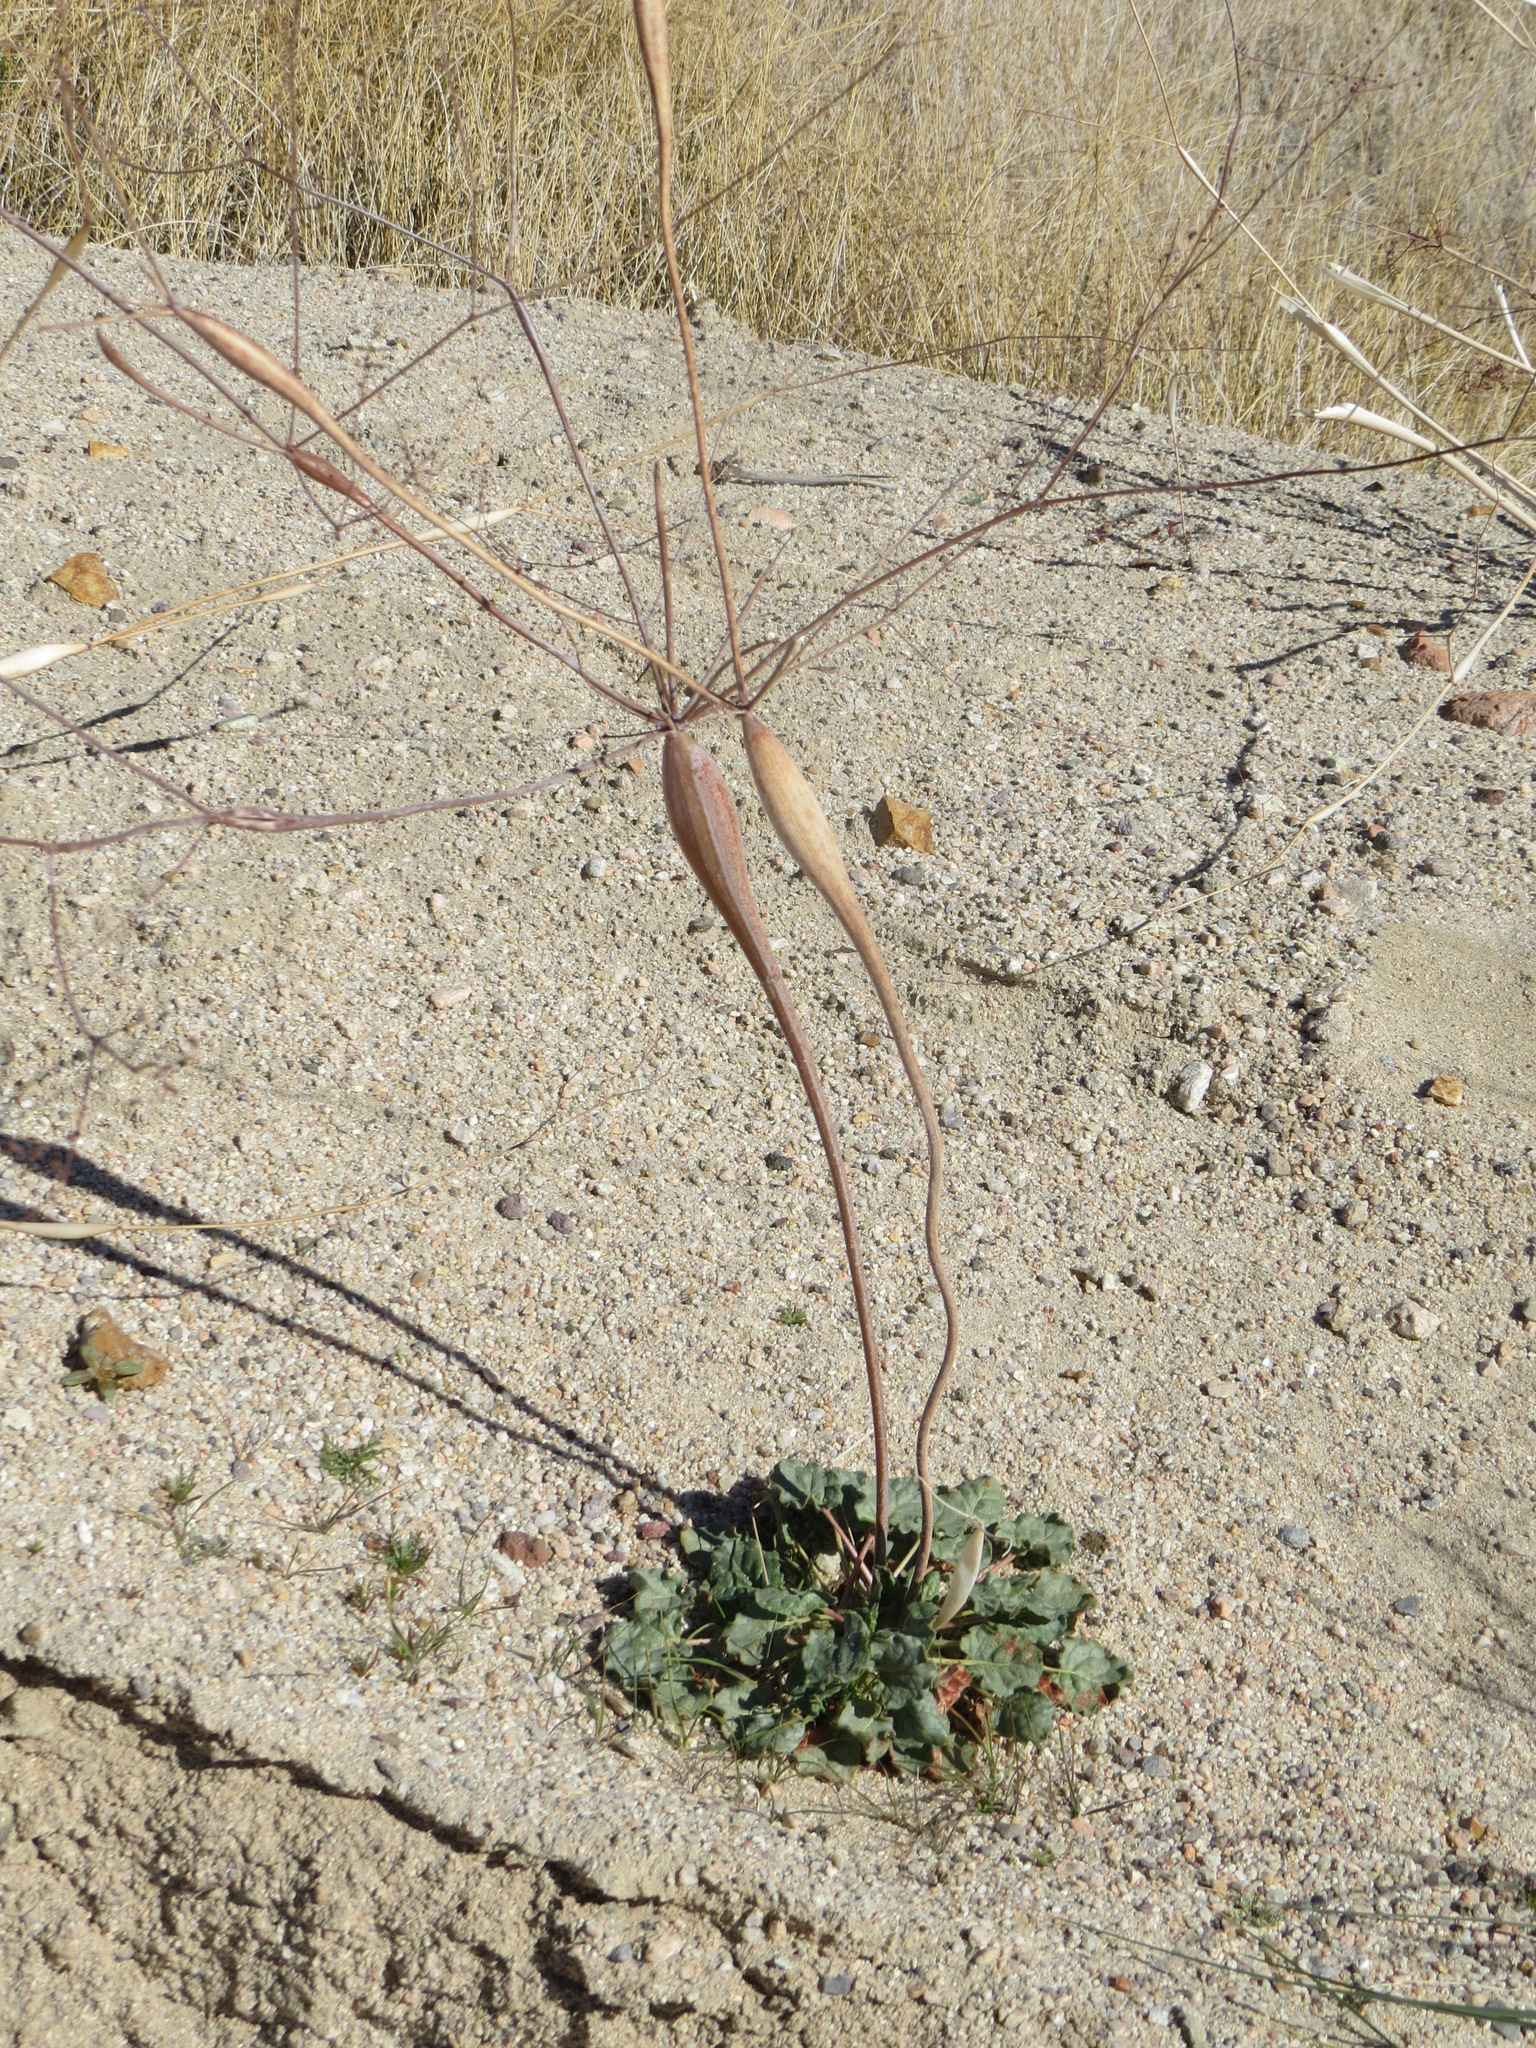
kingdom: Plantae
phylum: Tracheophyta
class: Magnoliopsida
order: Caryophyllales
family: Polygonaceae
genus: Eriogonum
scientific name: Eriogonum inflatum
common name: Desert trumpet
